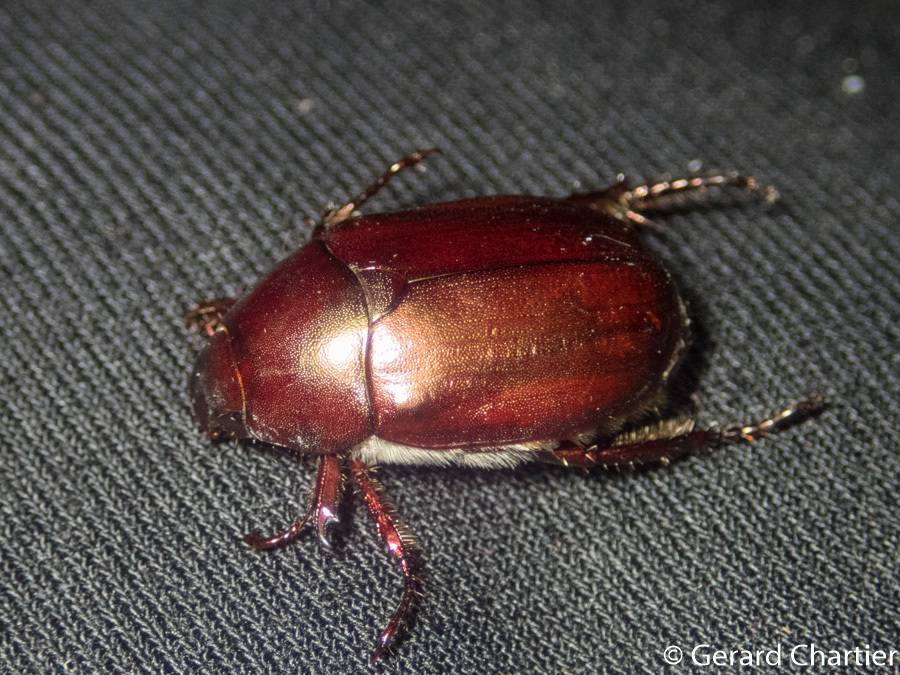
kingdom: Animalia
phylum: Arthropoda
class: Insecta
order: Coleoptera
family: Scarabaeidae
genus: Anomala
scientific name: Anomala densa
